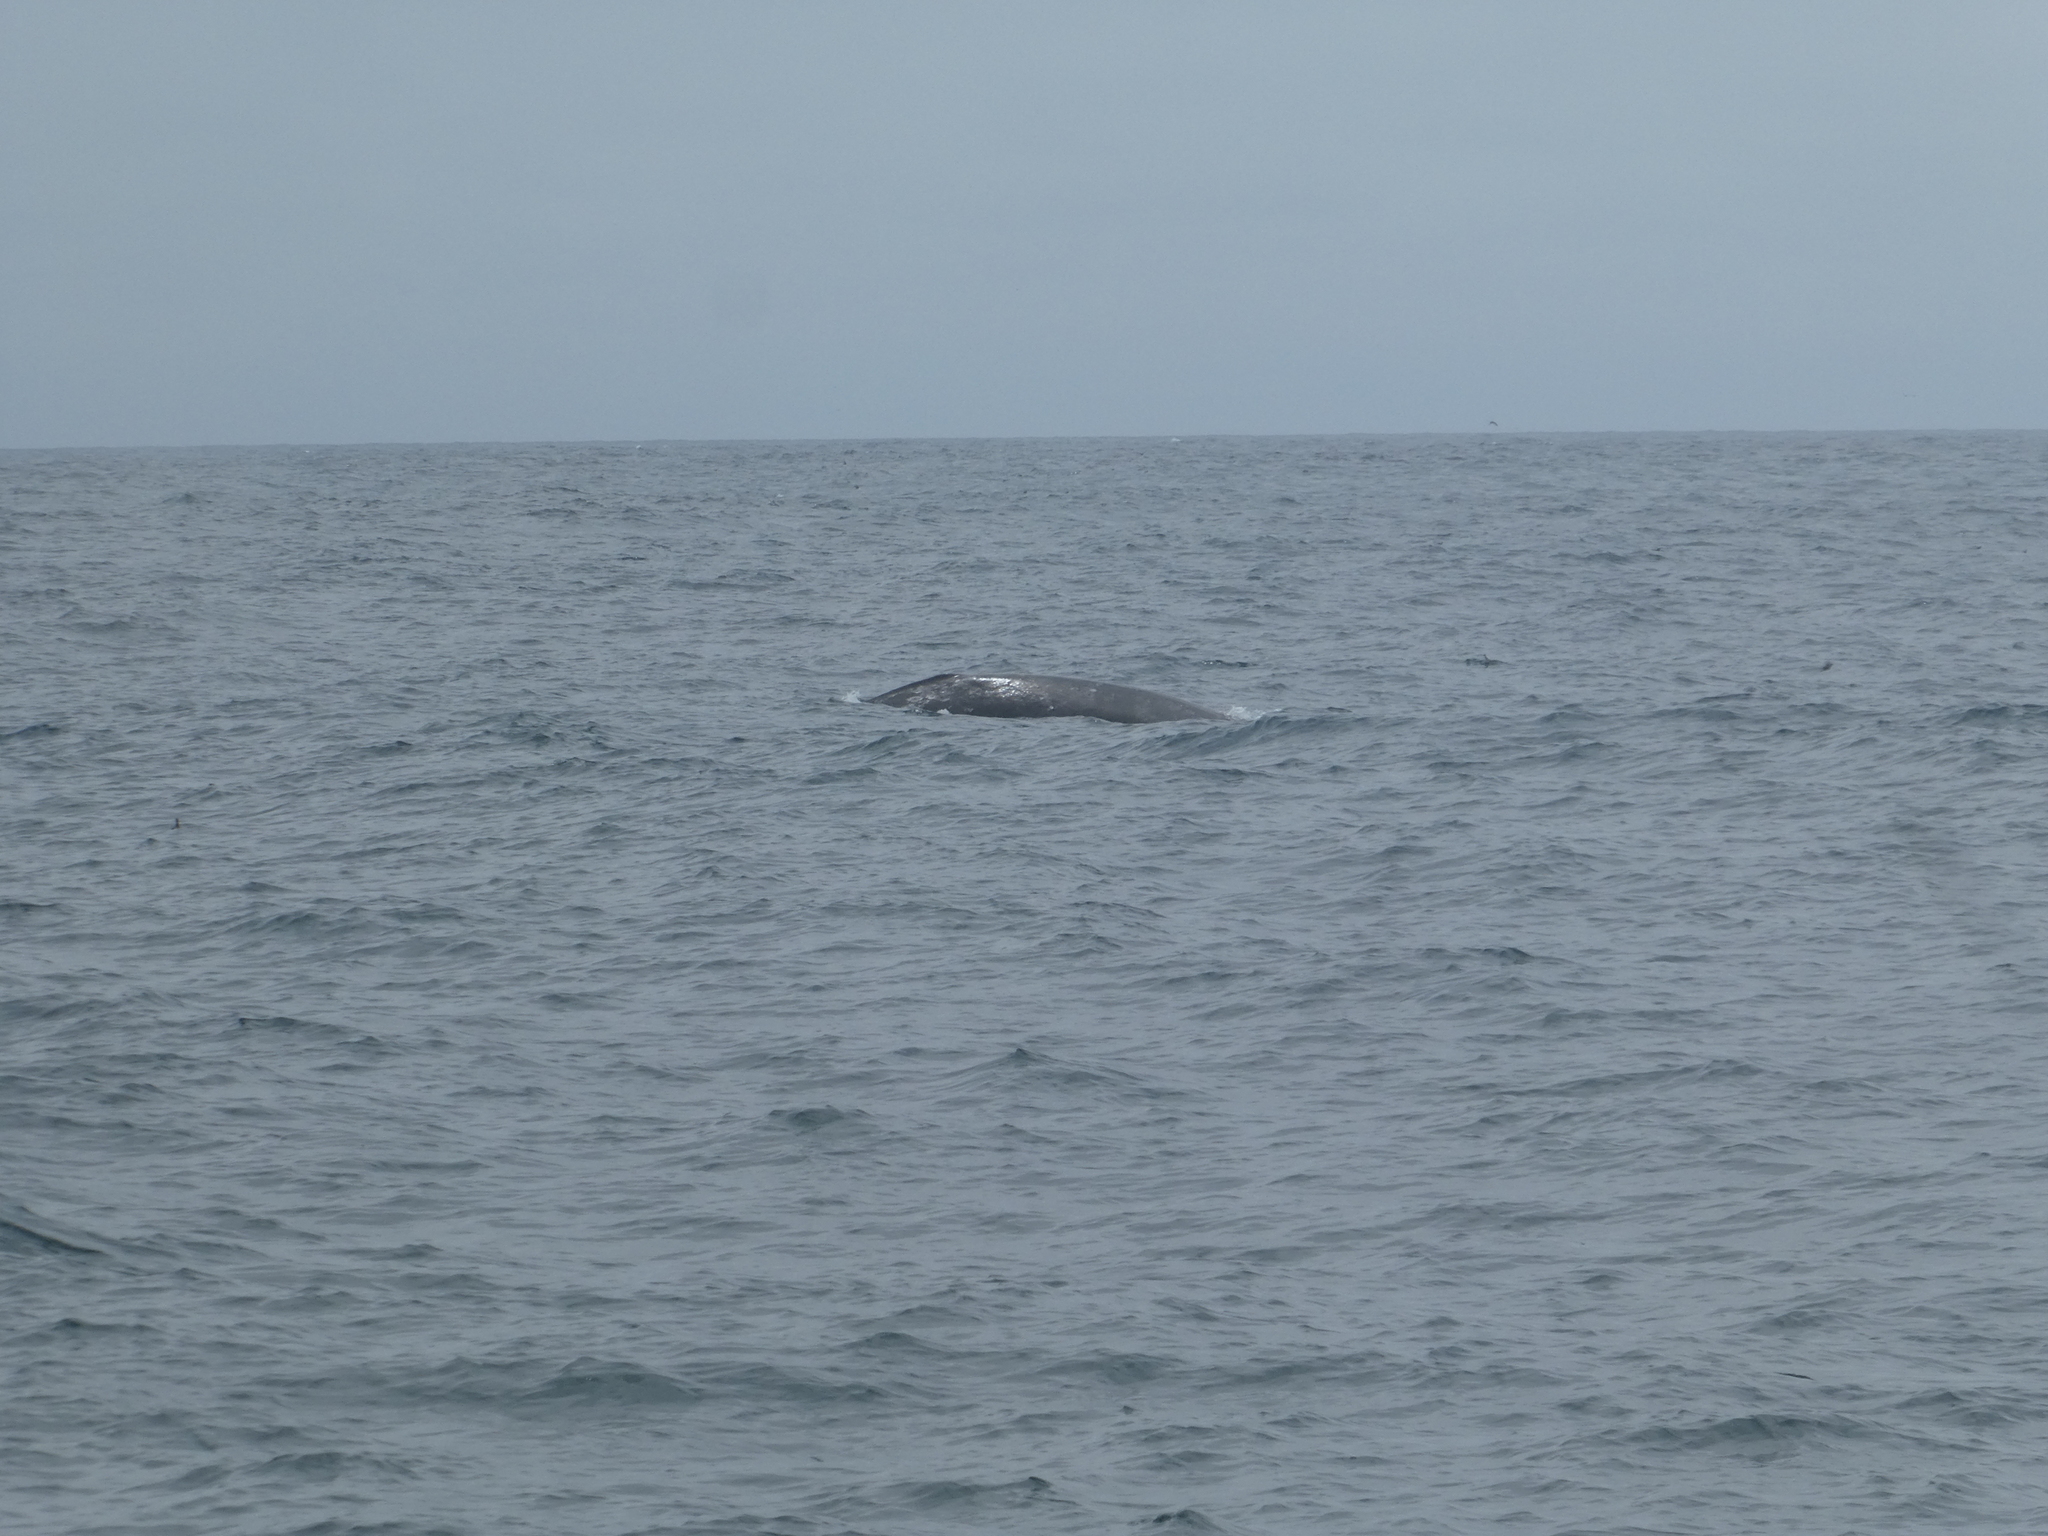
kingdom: Animalia
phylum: Chordata
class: Mammalia
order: Cetacea
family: Eschrichtiidae
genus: Eschrichtius
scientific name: Eschrichtius robustus
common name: Gray whale
